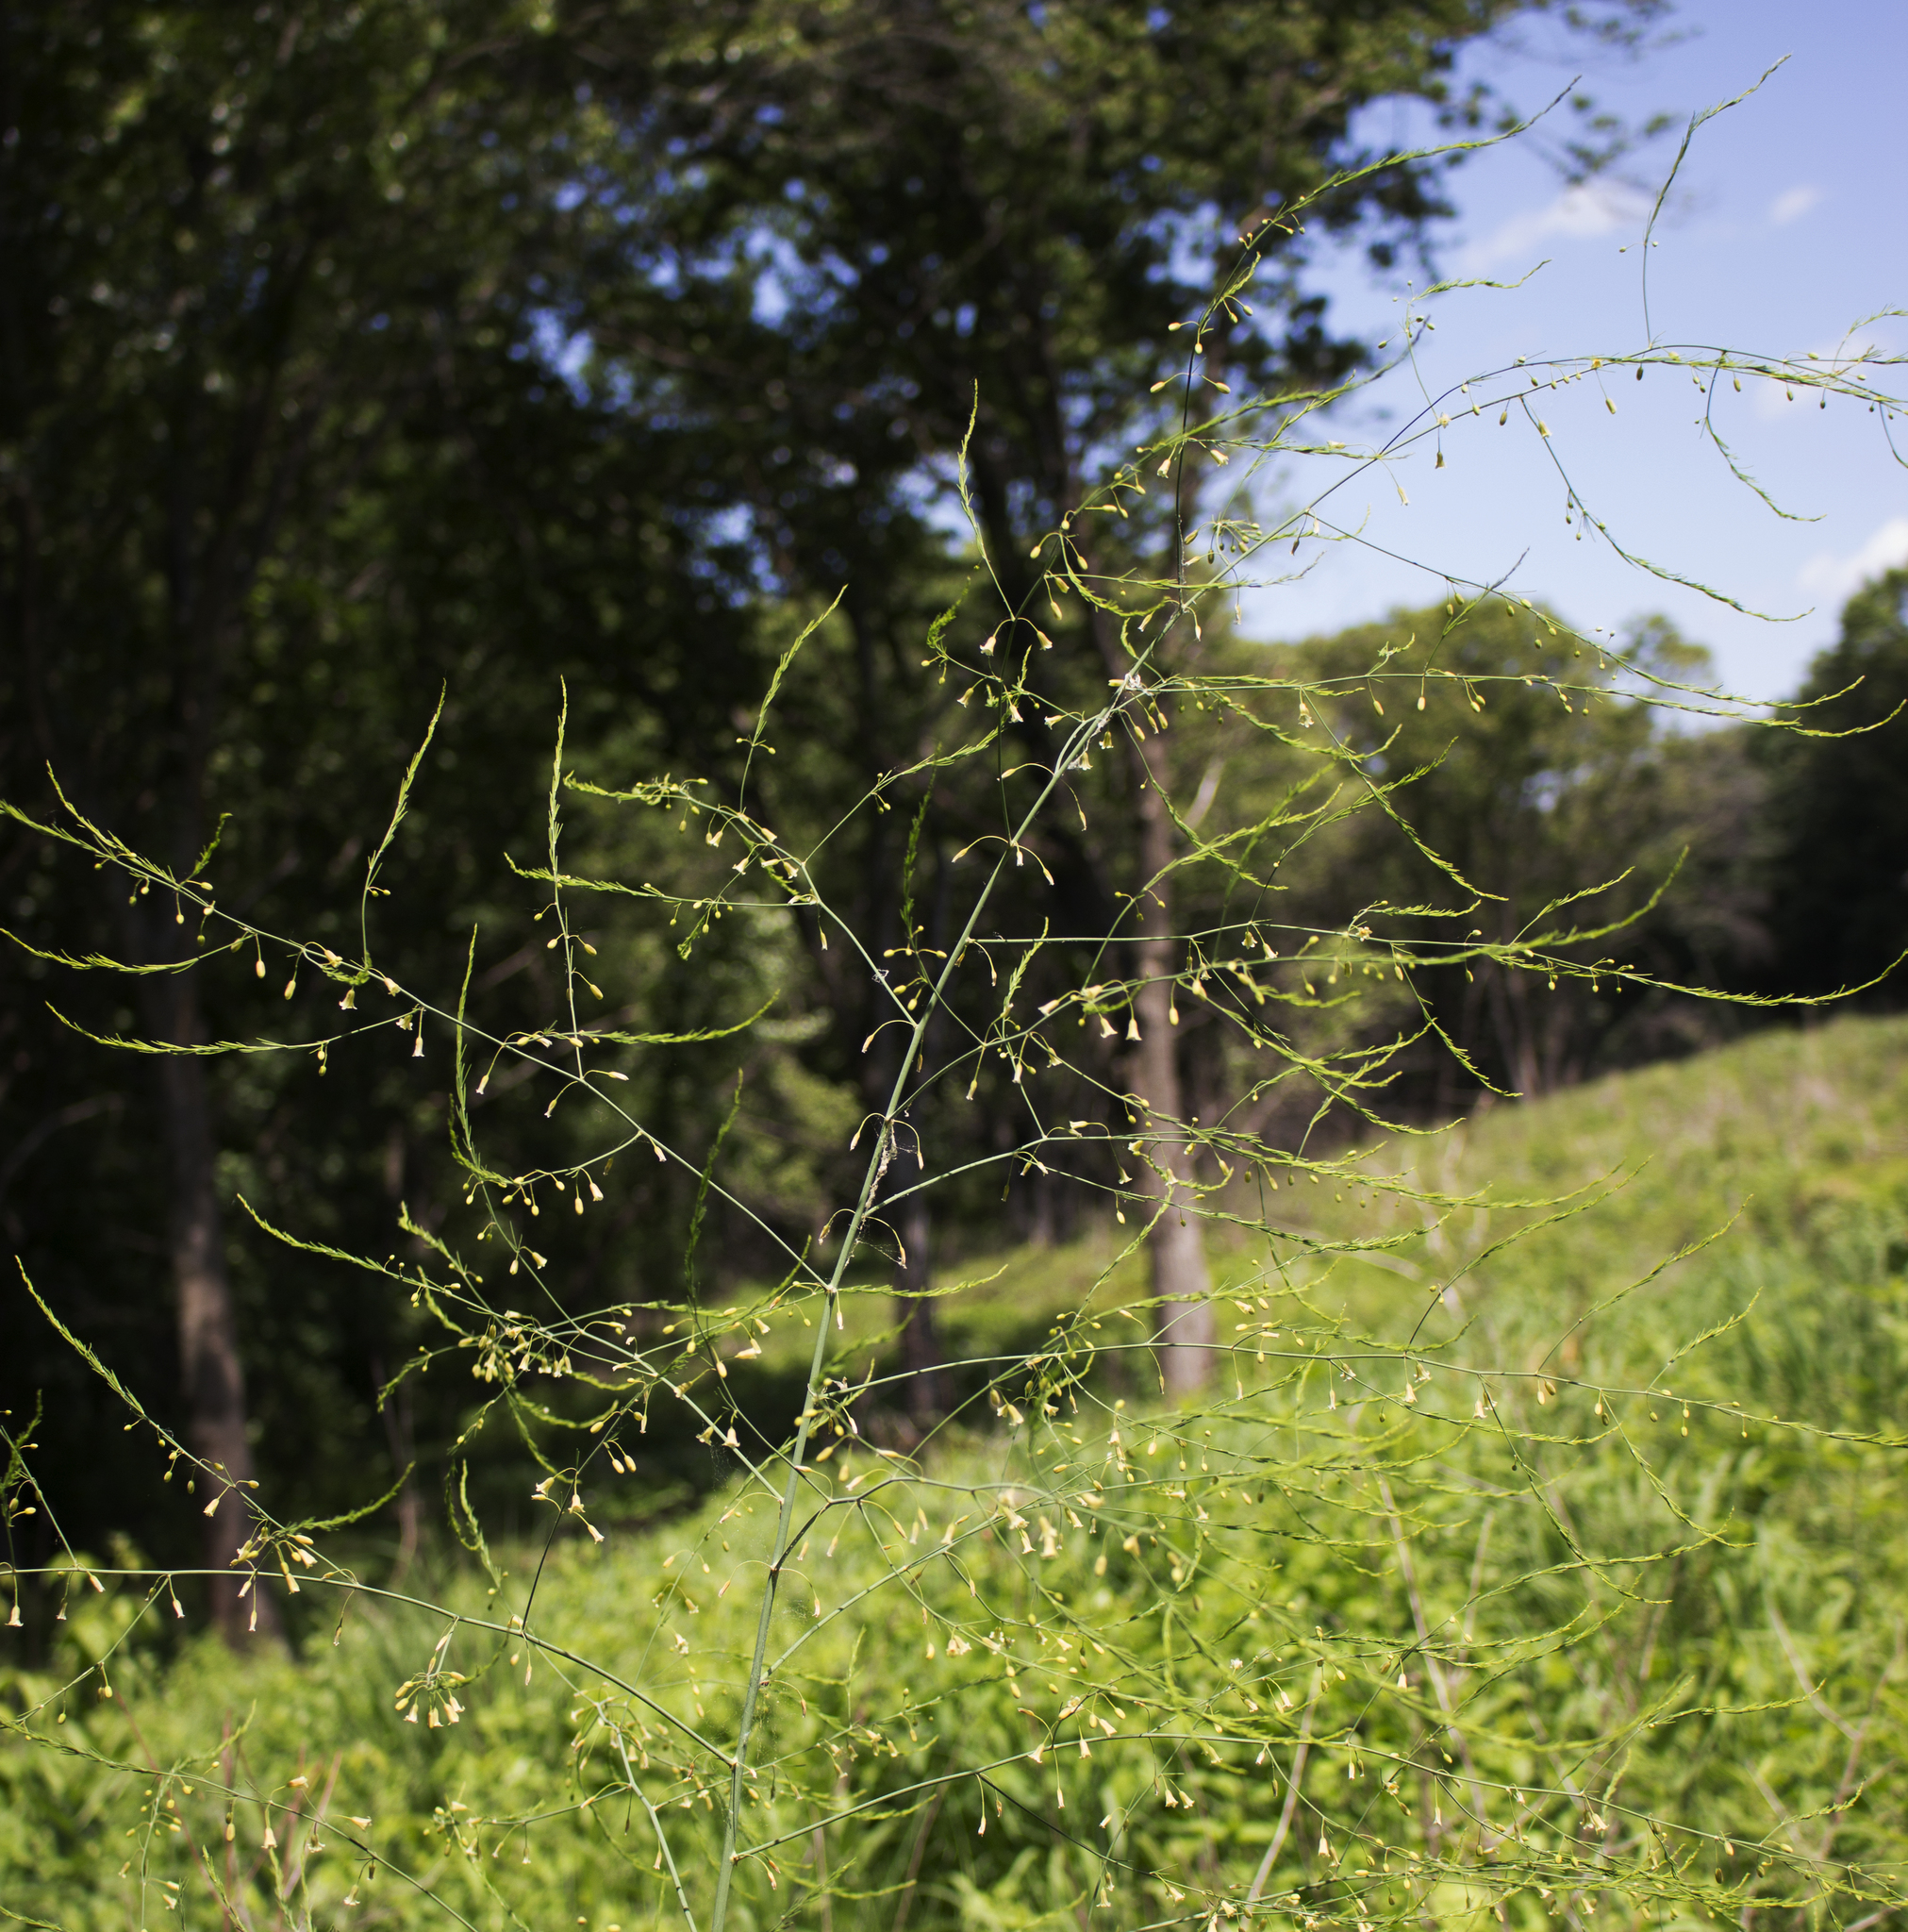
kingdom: Plantae
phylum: Tracheophyta
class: Liliopsida
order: Asparagales
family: Asparagaceae
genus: Asparagus
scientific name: Asparagus officinalis
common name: Garden asparagus
